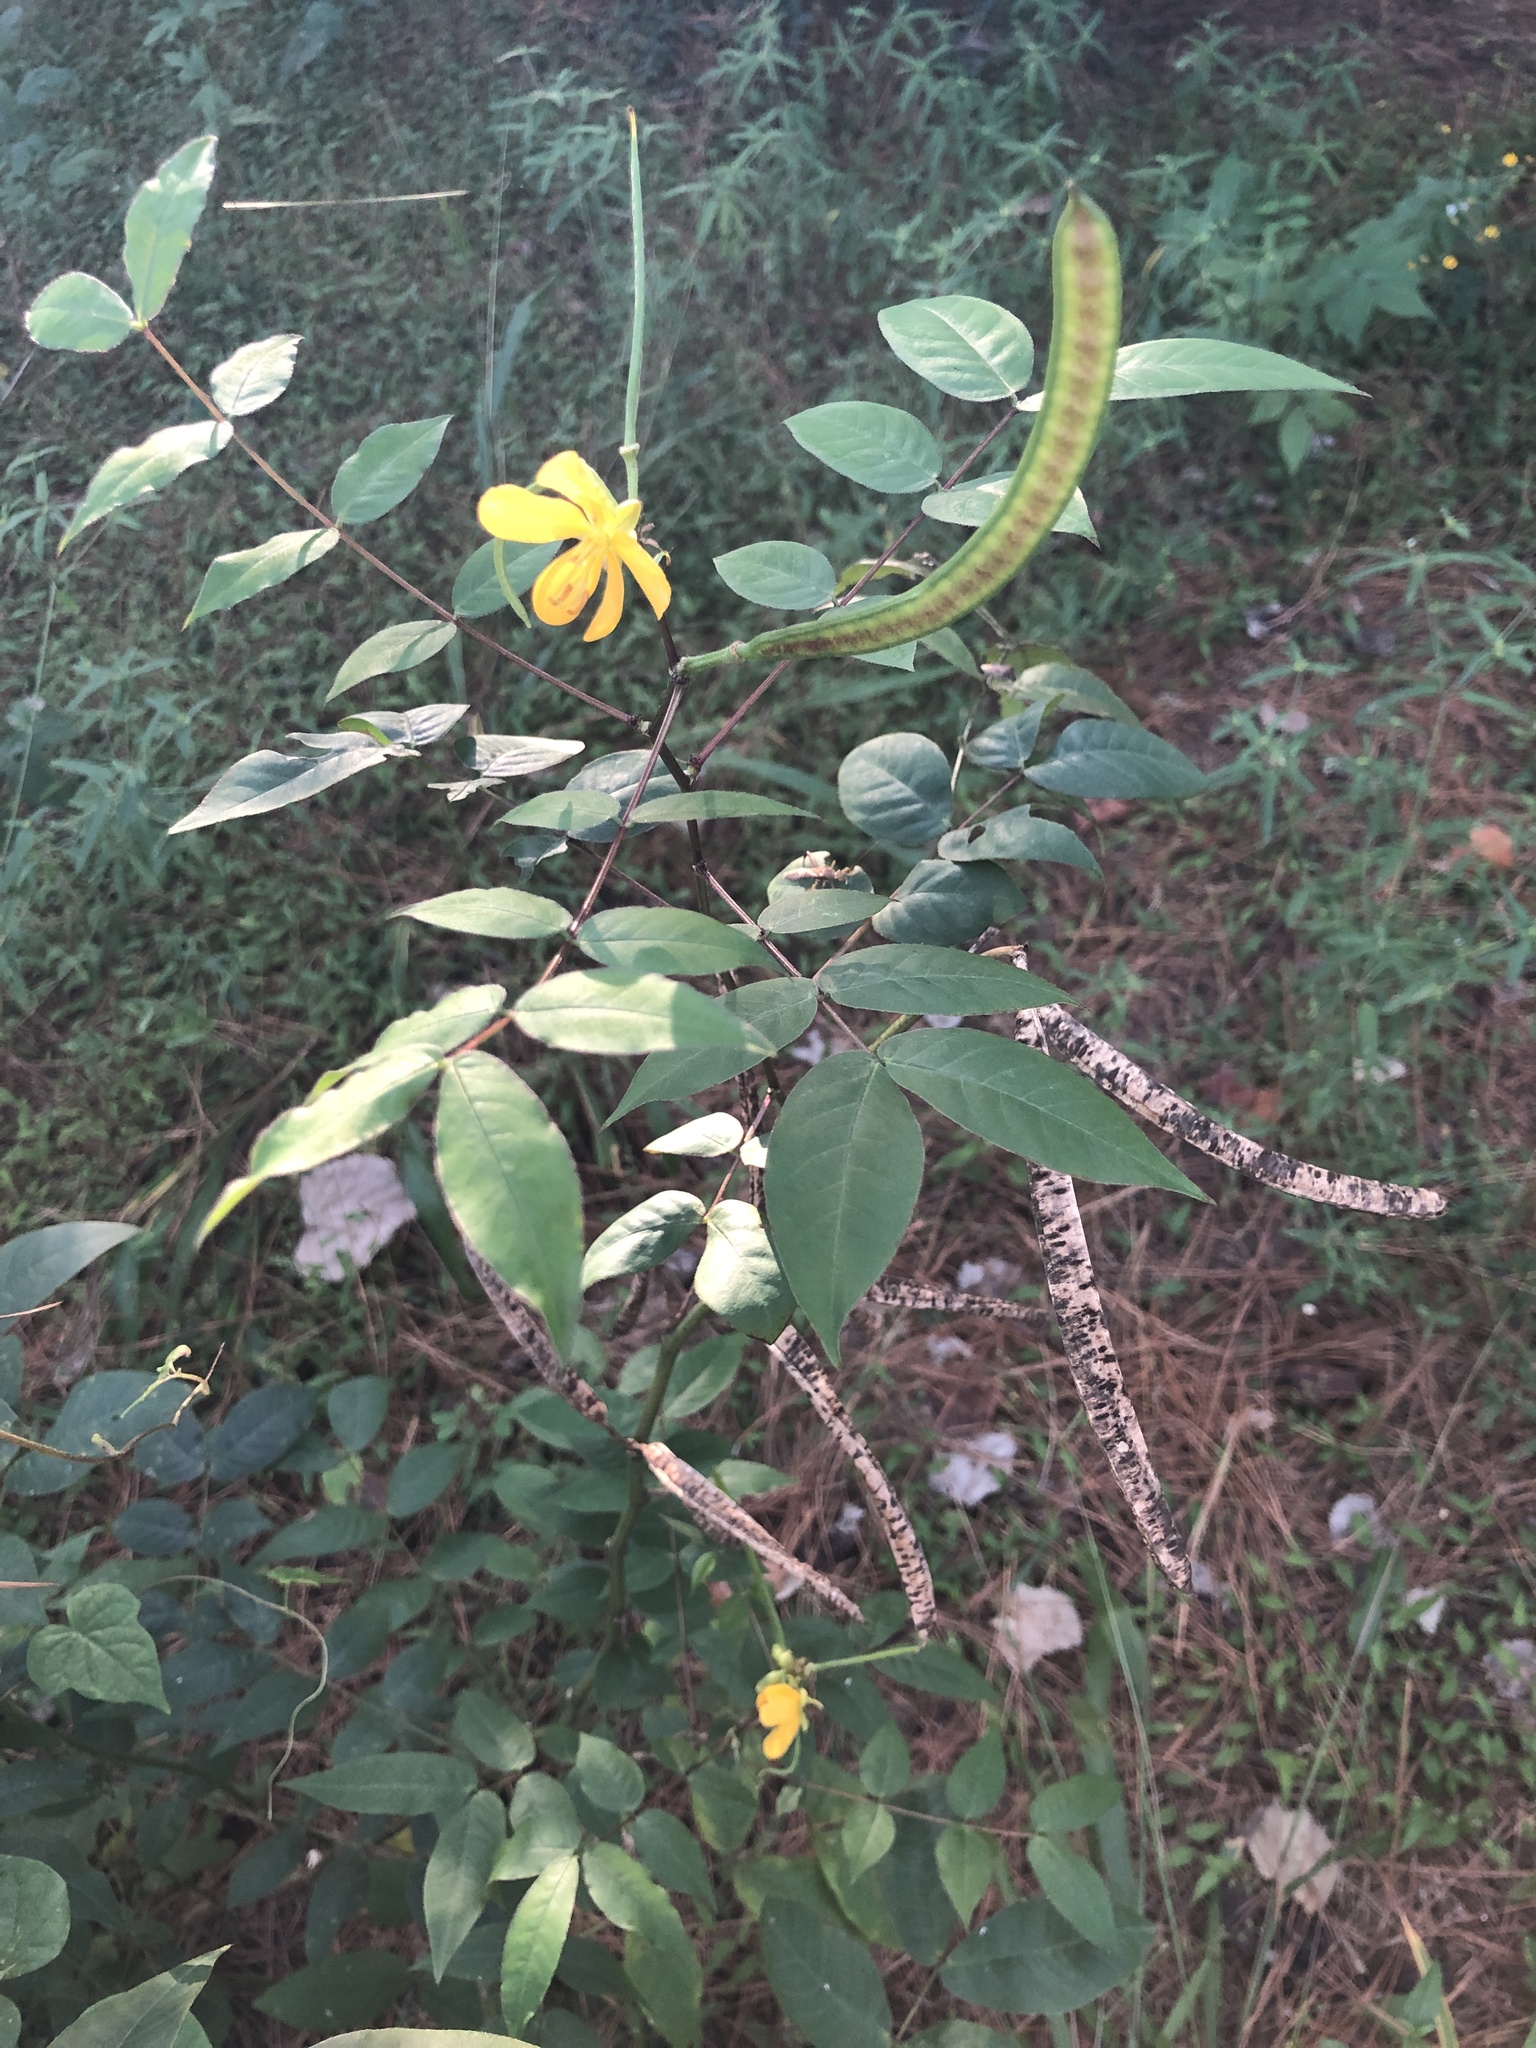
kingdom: Plantae
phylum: Tracheophyta
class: Magnoliopsida
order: Fabales
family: Fabaceae
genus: Senna
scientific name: Senna occidentalis
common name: Septicweed
